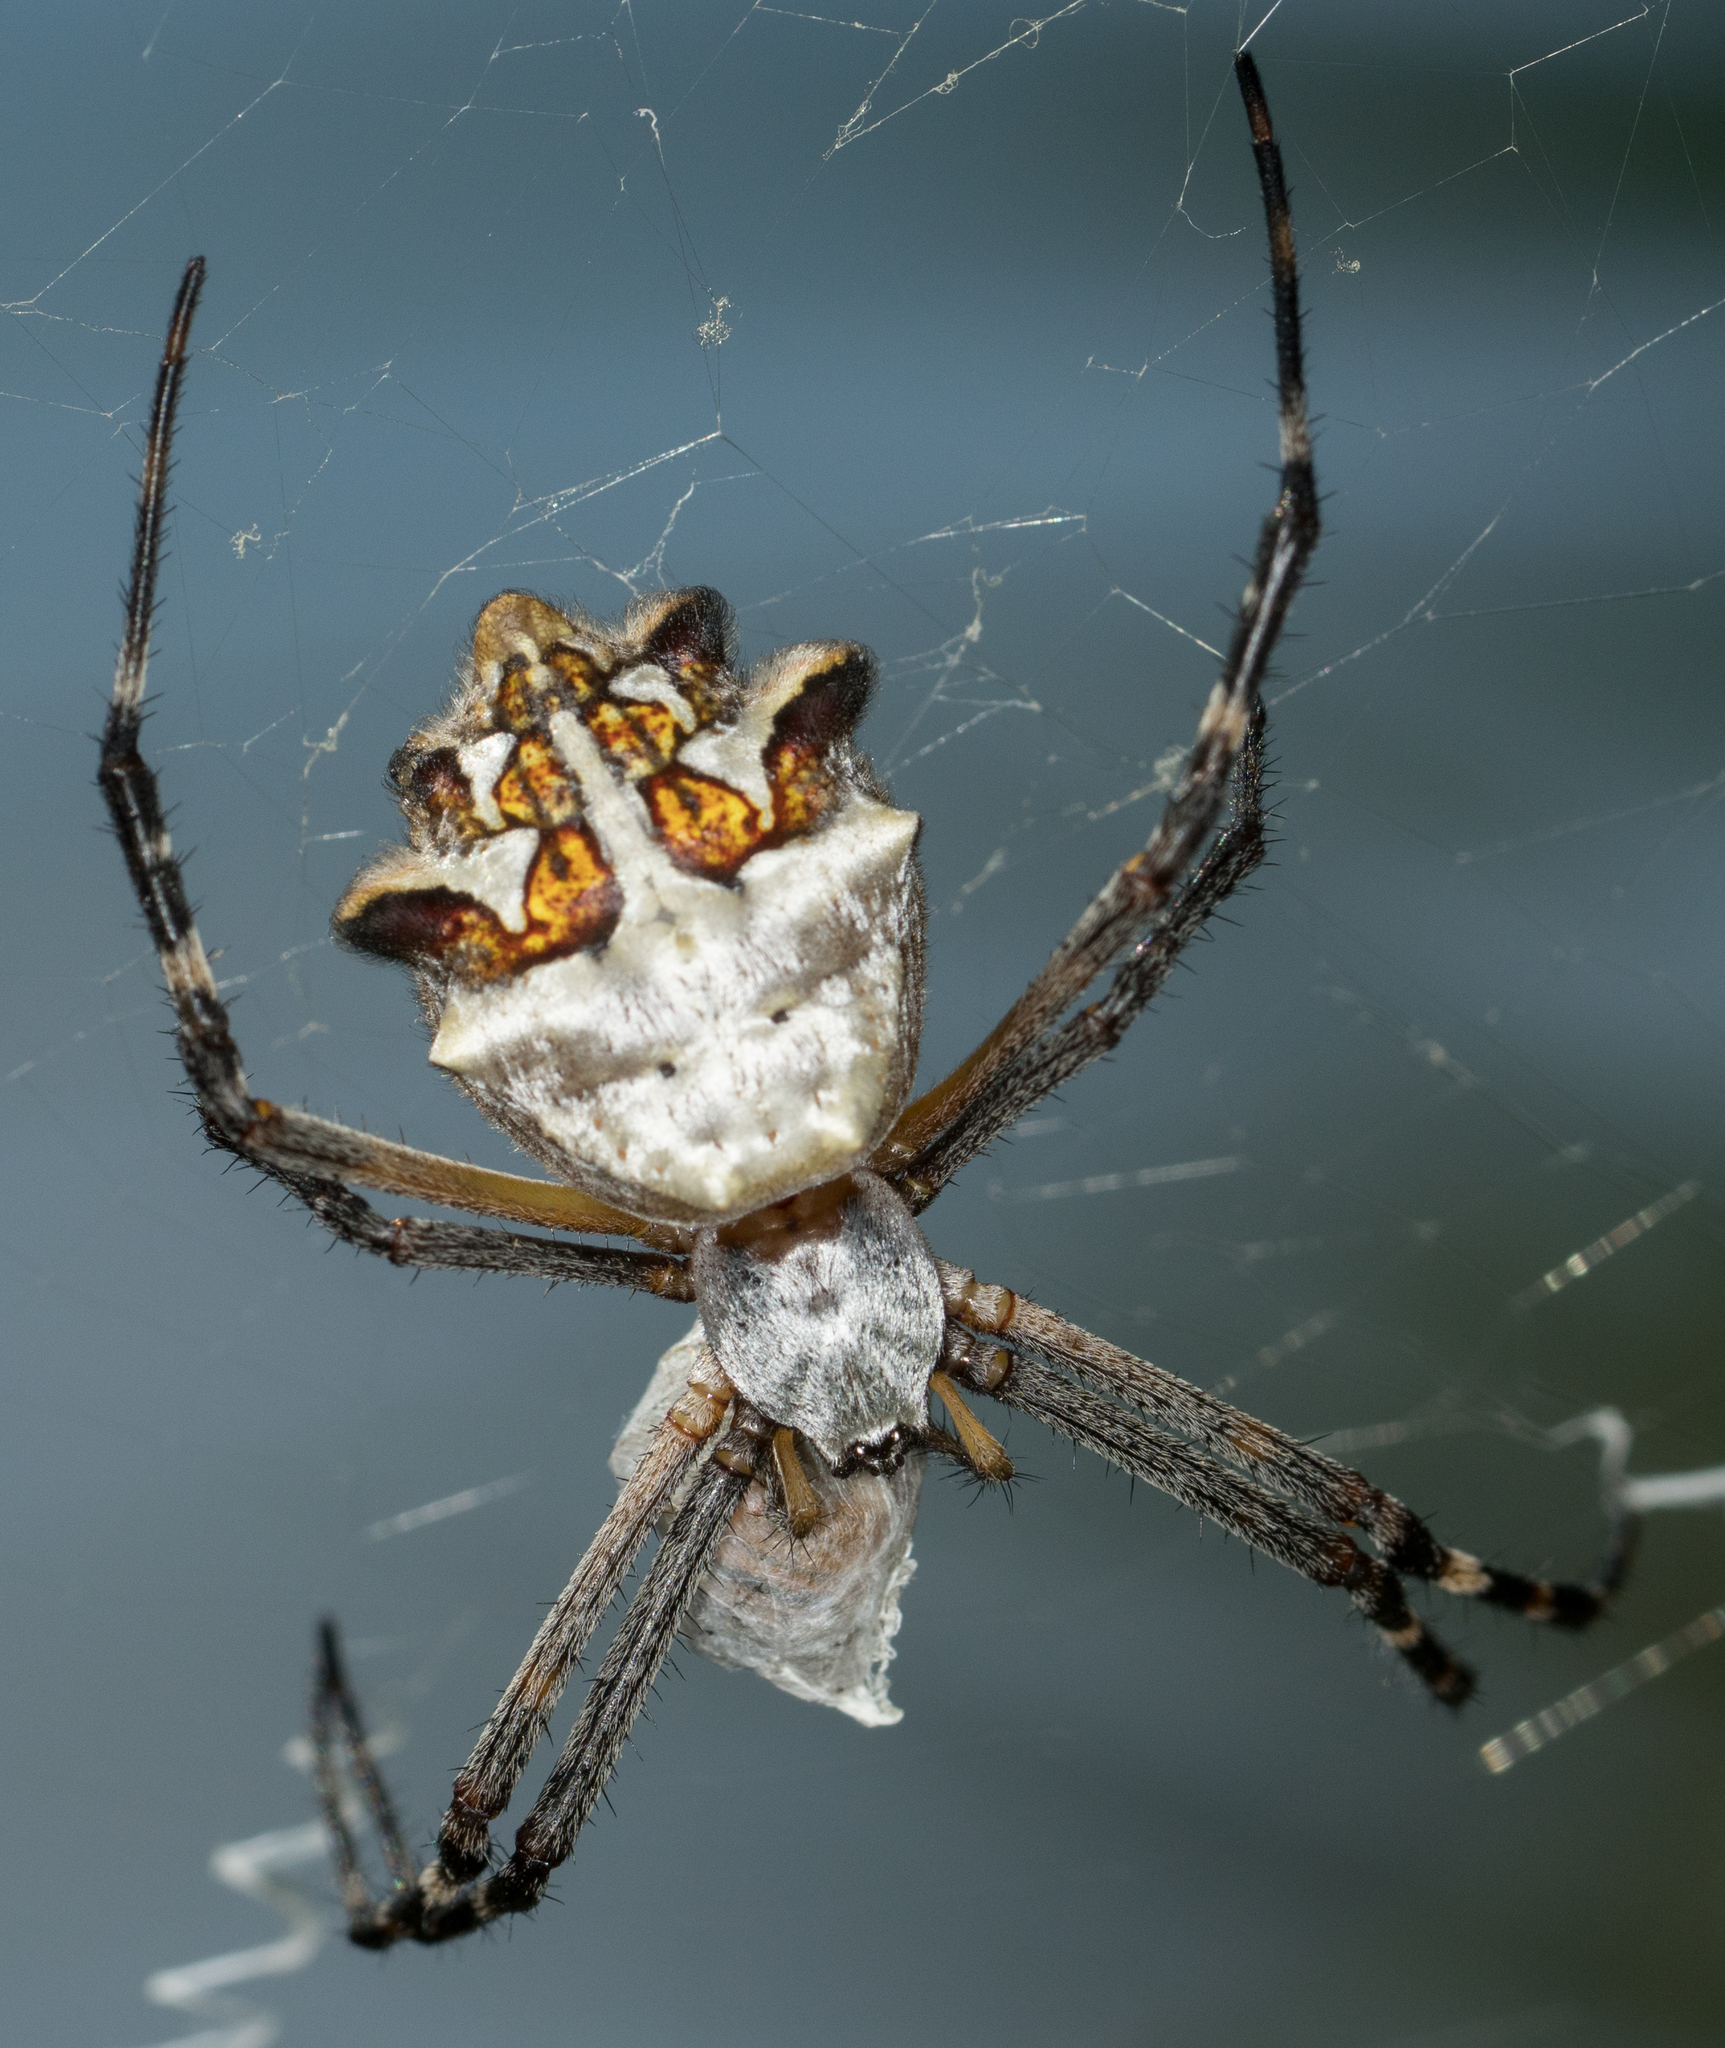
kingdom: Animalia
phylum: Arthropoda
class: Arachnida
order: Araneae
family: Araneidae
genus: Argiope
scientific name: Argiope argentata
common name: Orb weavers
